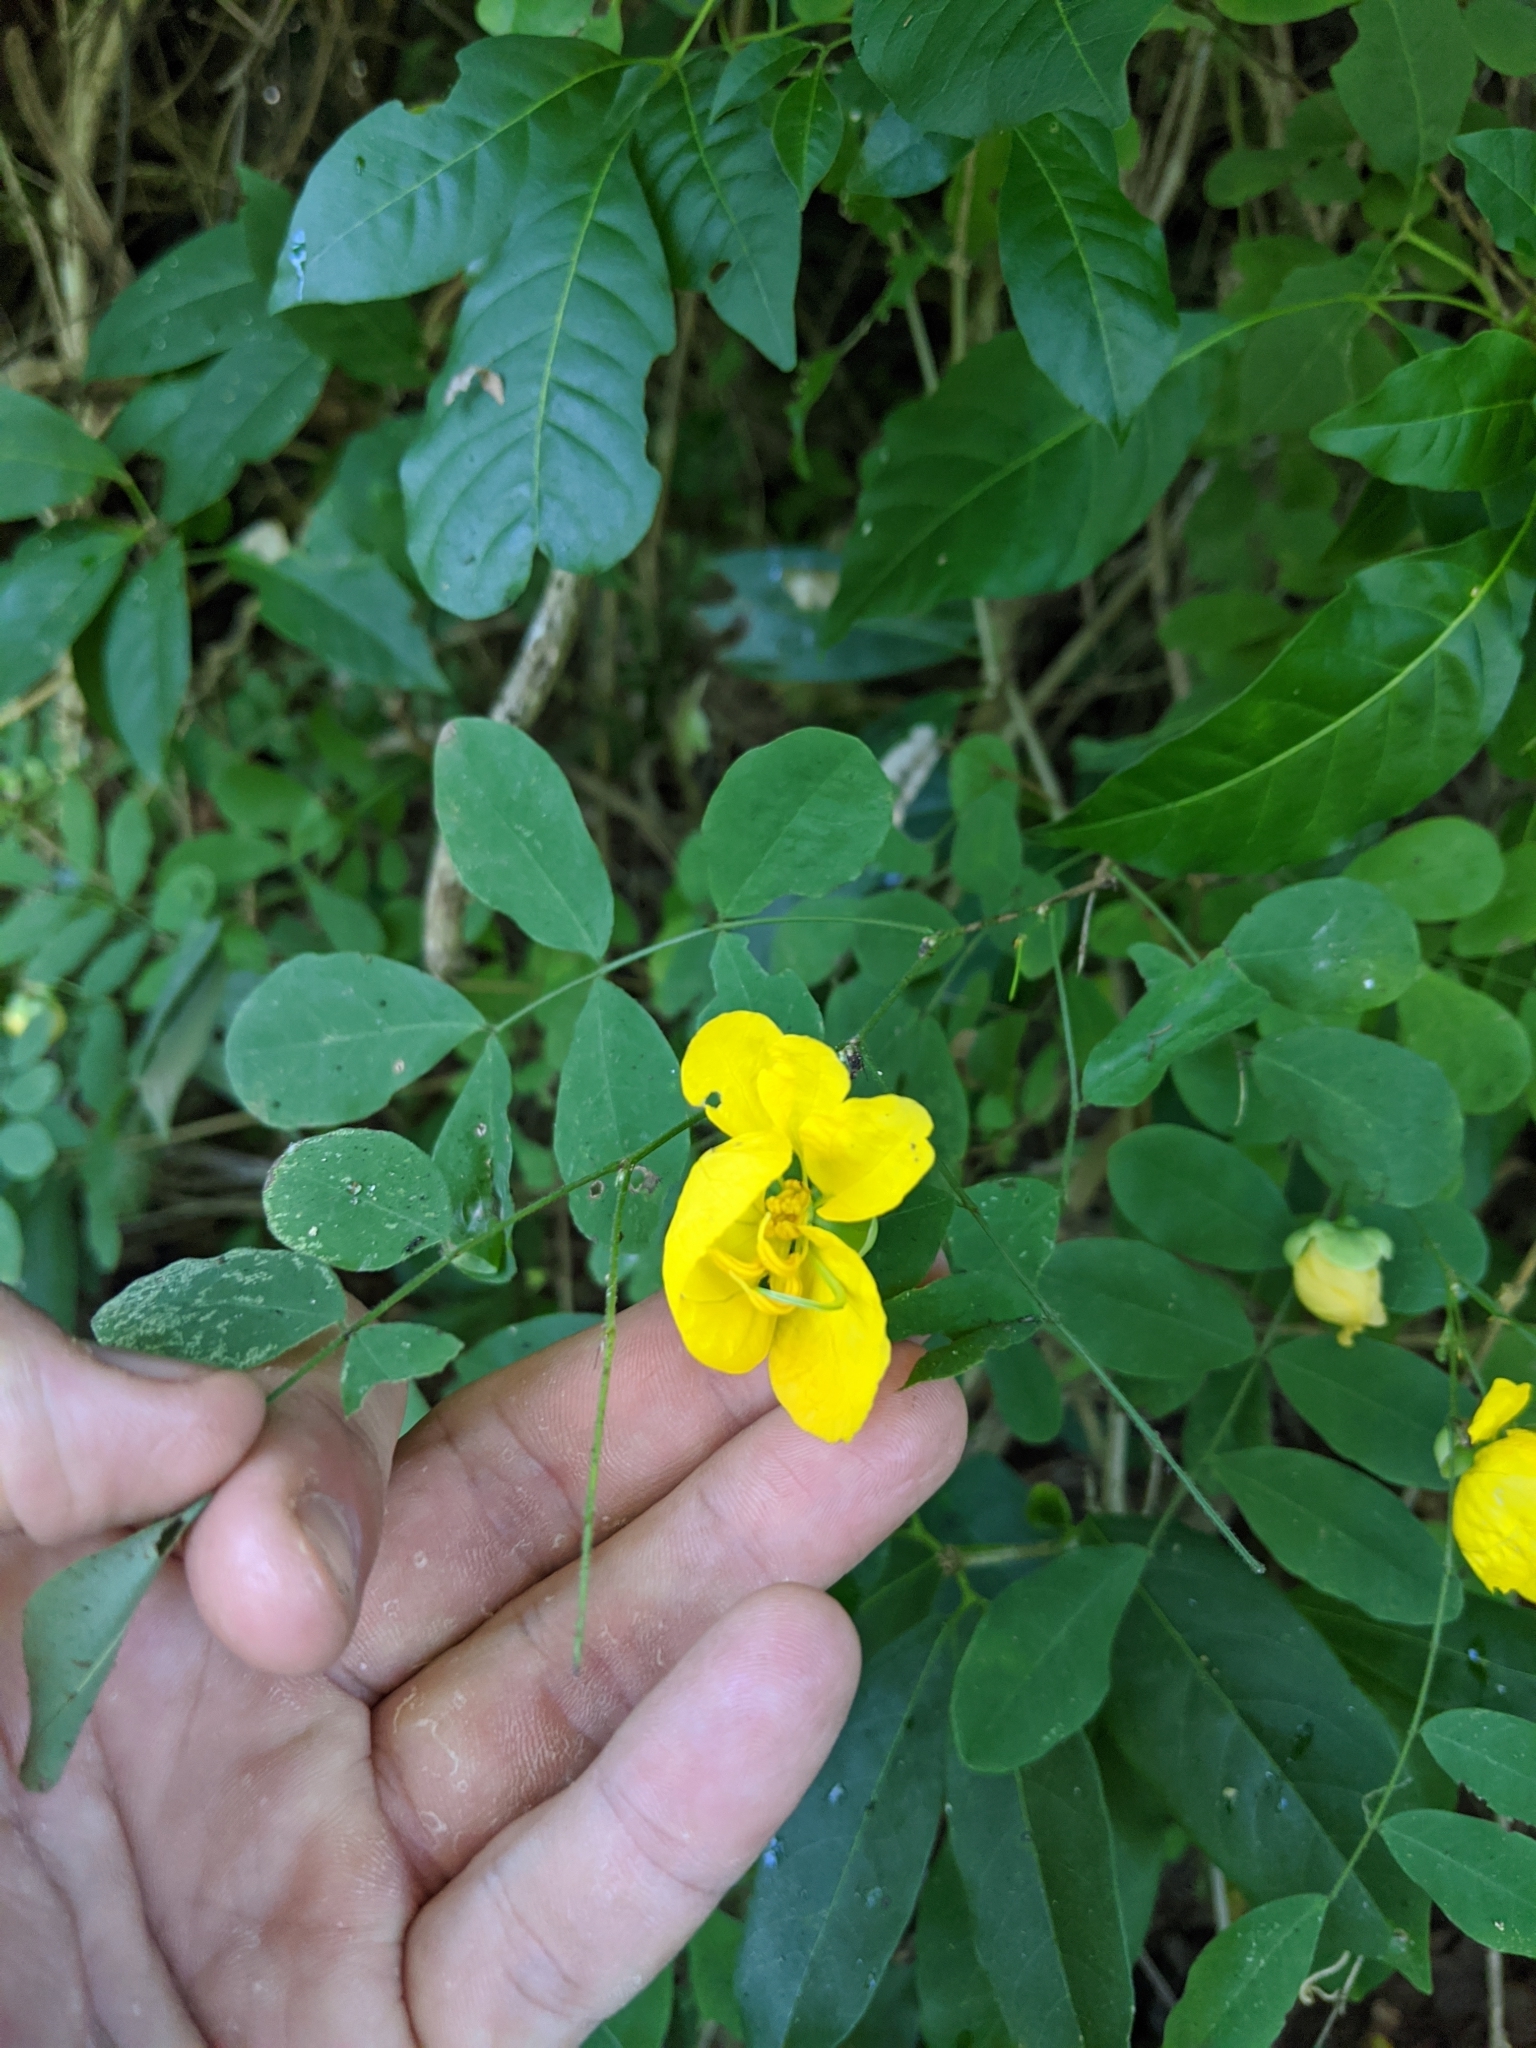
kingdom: Plantae
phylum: Tracheophyta
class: Magnoliopsida
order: Fabales
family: Fabaceae
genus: Senna
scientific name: Senna pallida
